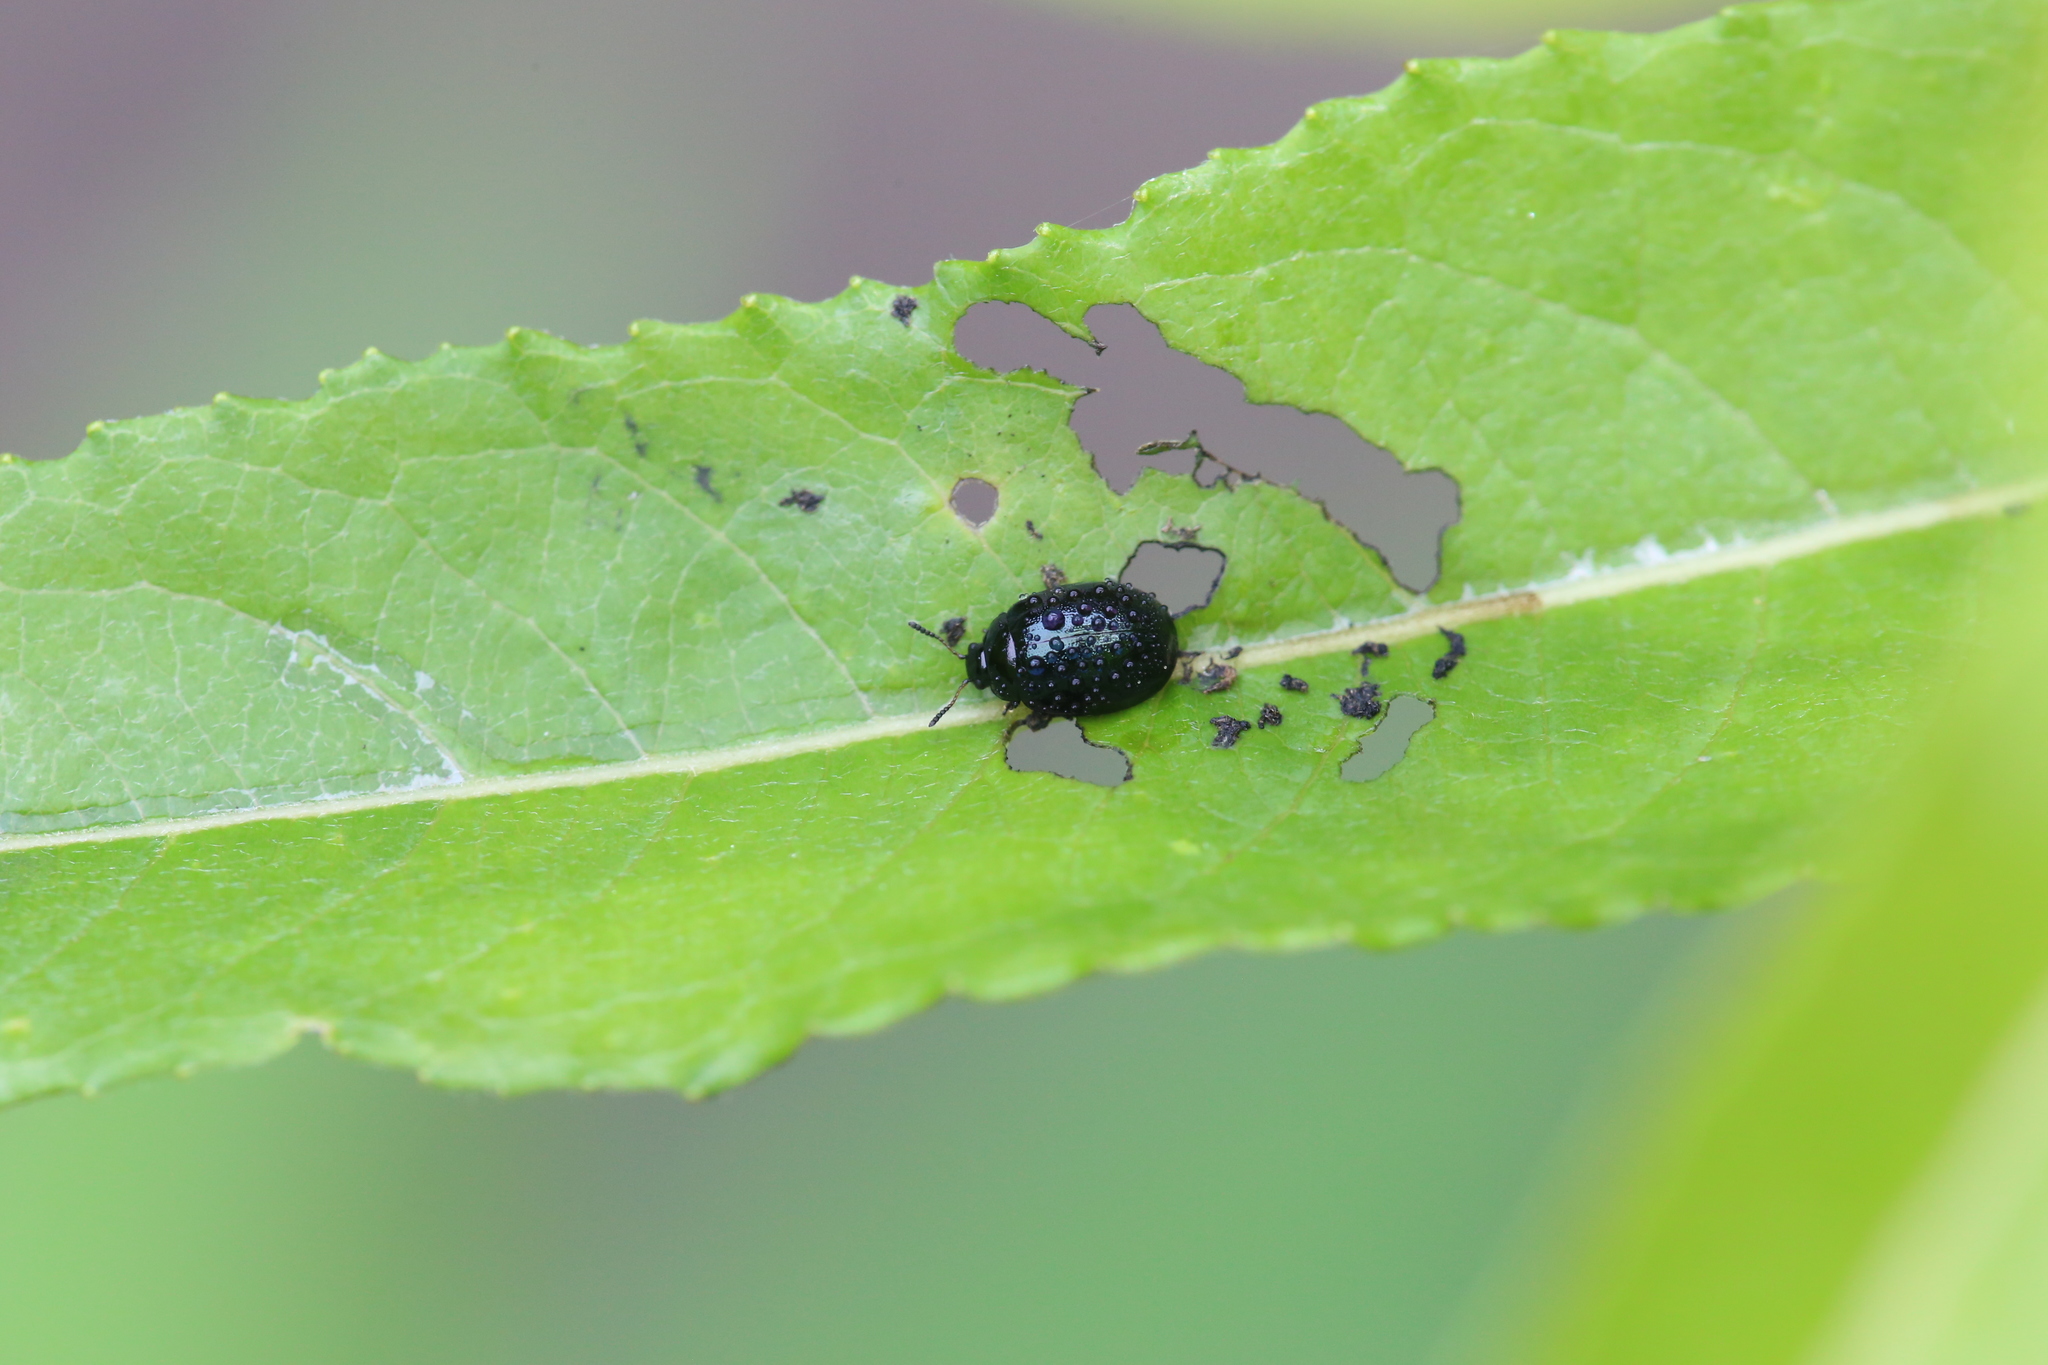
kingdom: Animalia
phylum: Arthropoda
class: Insecta
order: Coleoptera
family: Chrysomelidae
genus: Plagiodera
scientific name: Plagiodera versicolora
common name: Imported willow leaf beetle
